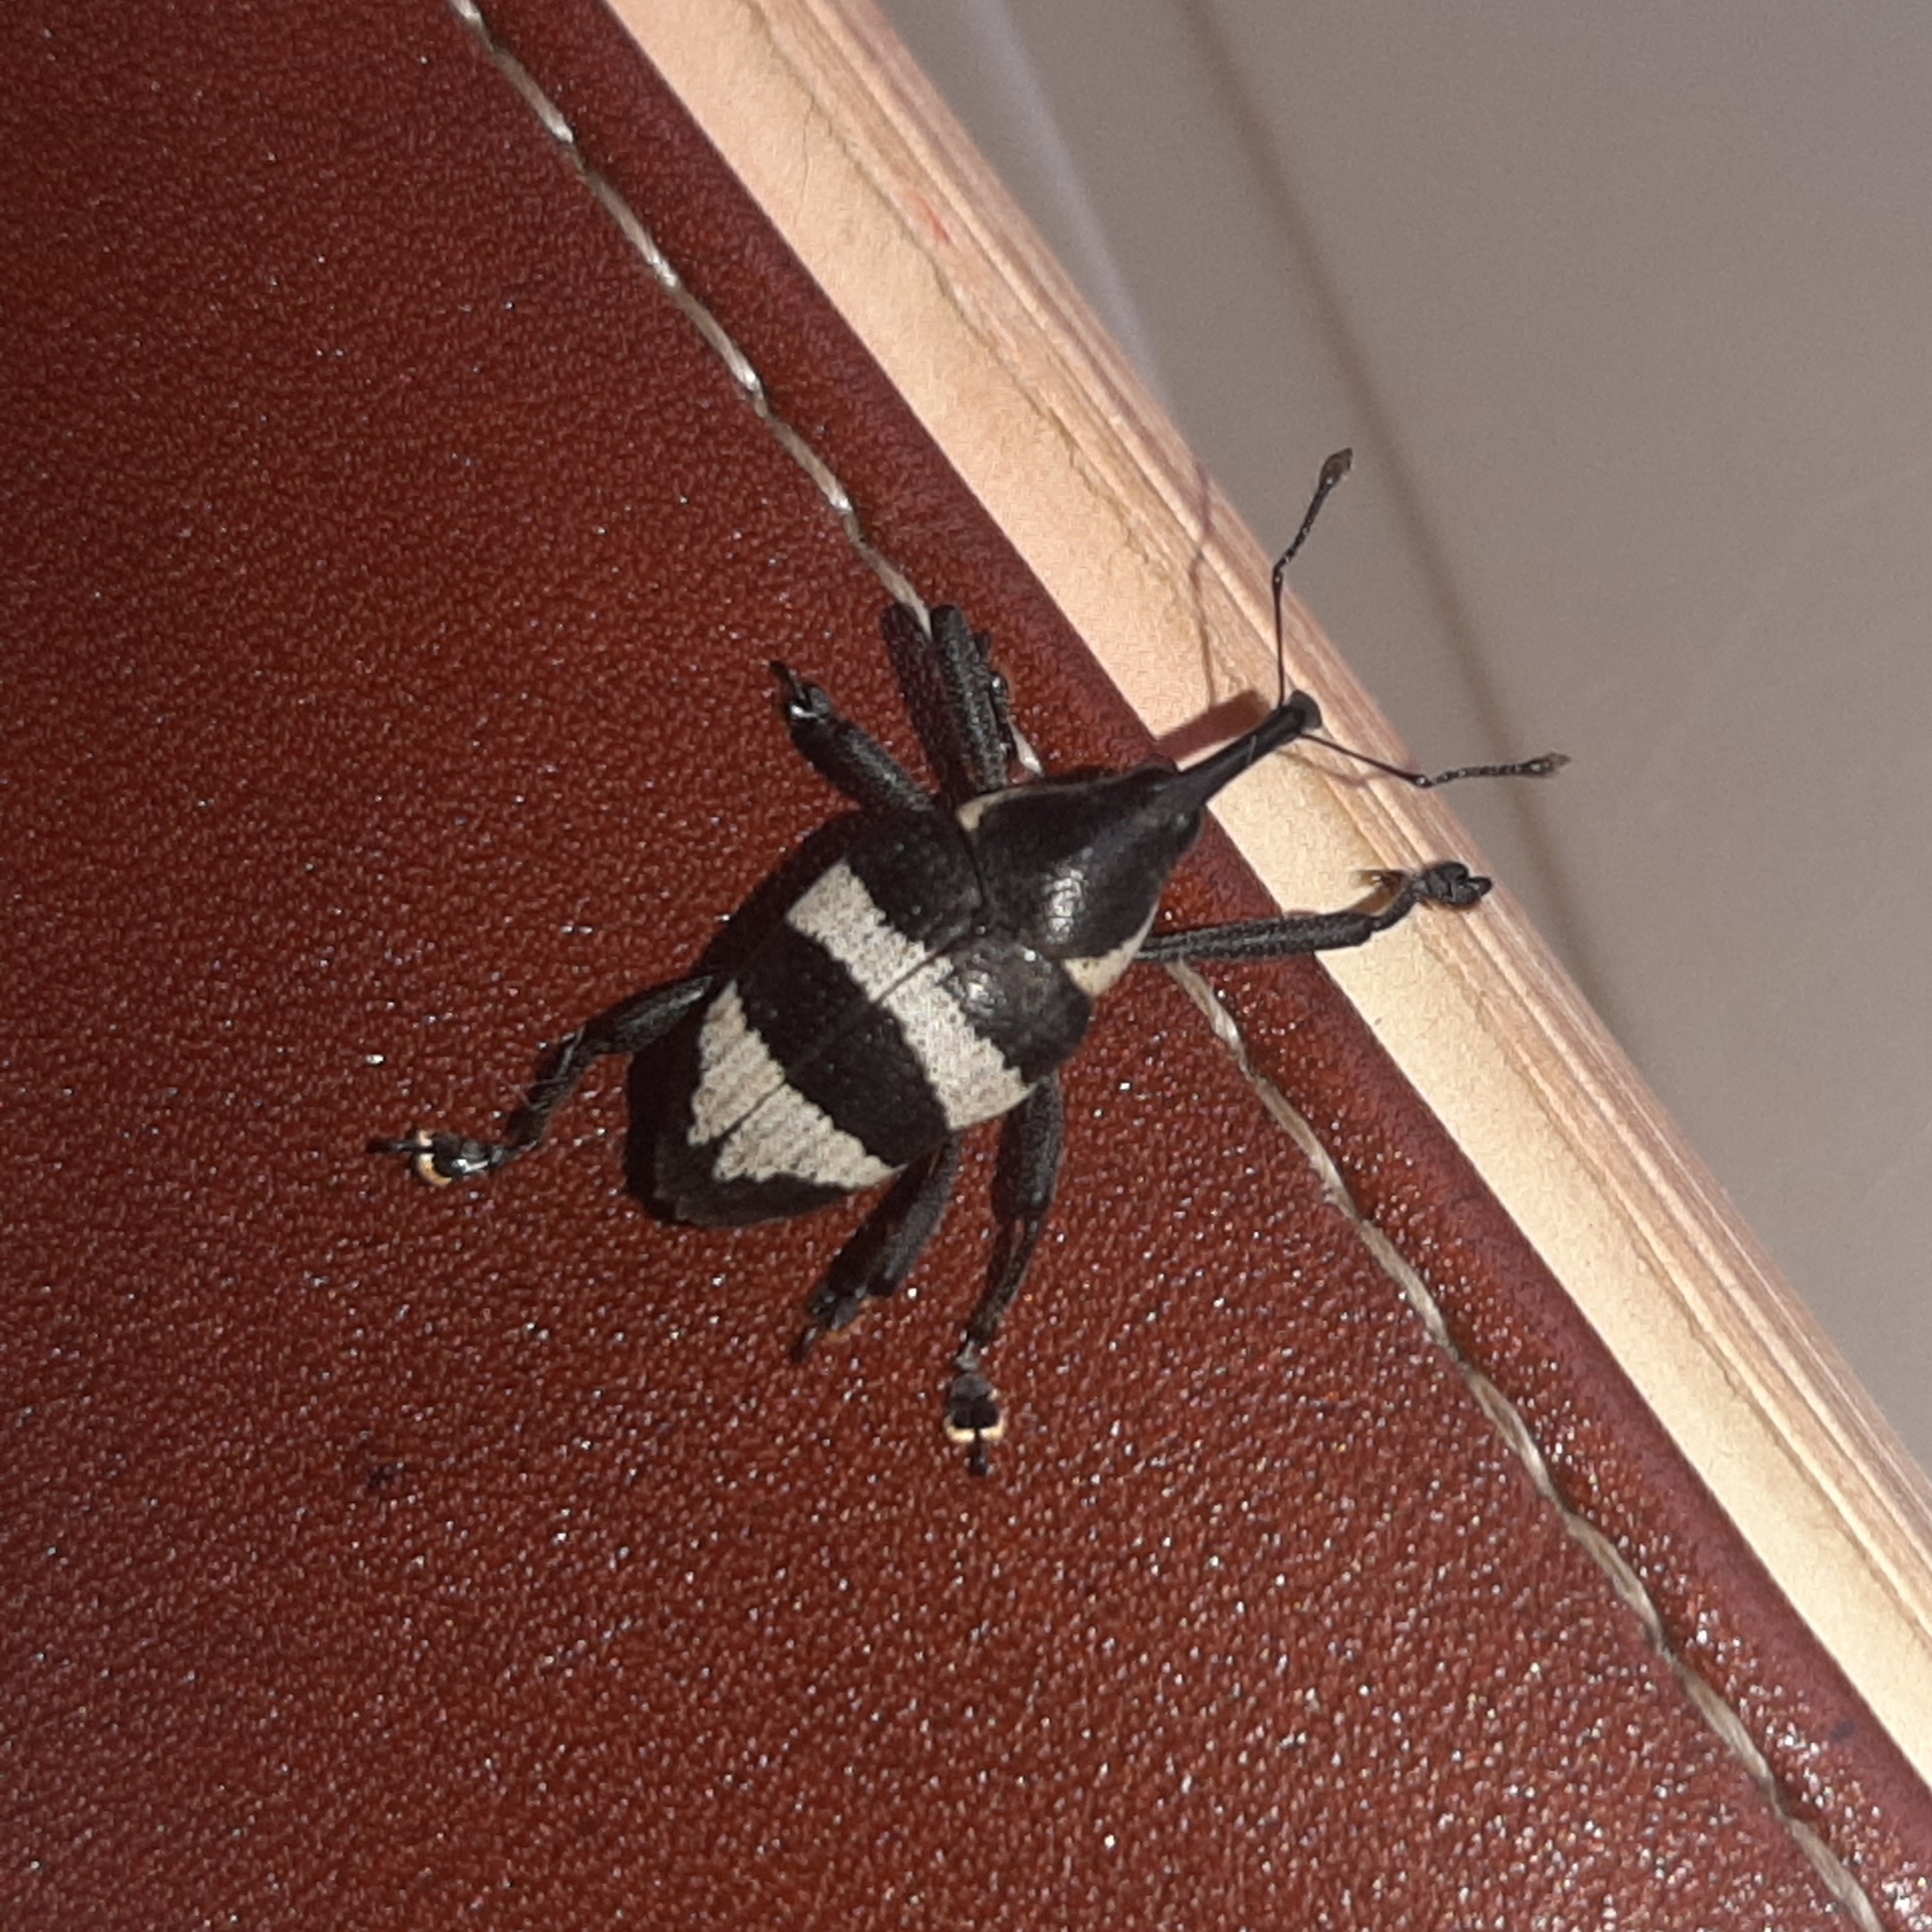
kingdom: Animalia
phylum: Arthropoda
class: Insecta
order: Coleoptera
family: Curculionidae
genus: Cholus
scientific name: Cholus costaricensis
